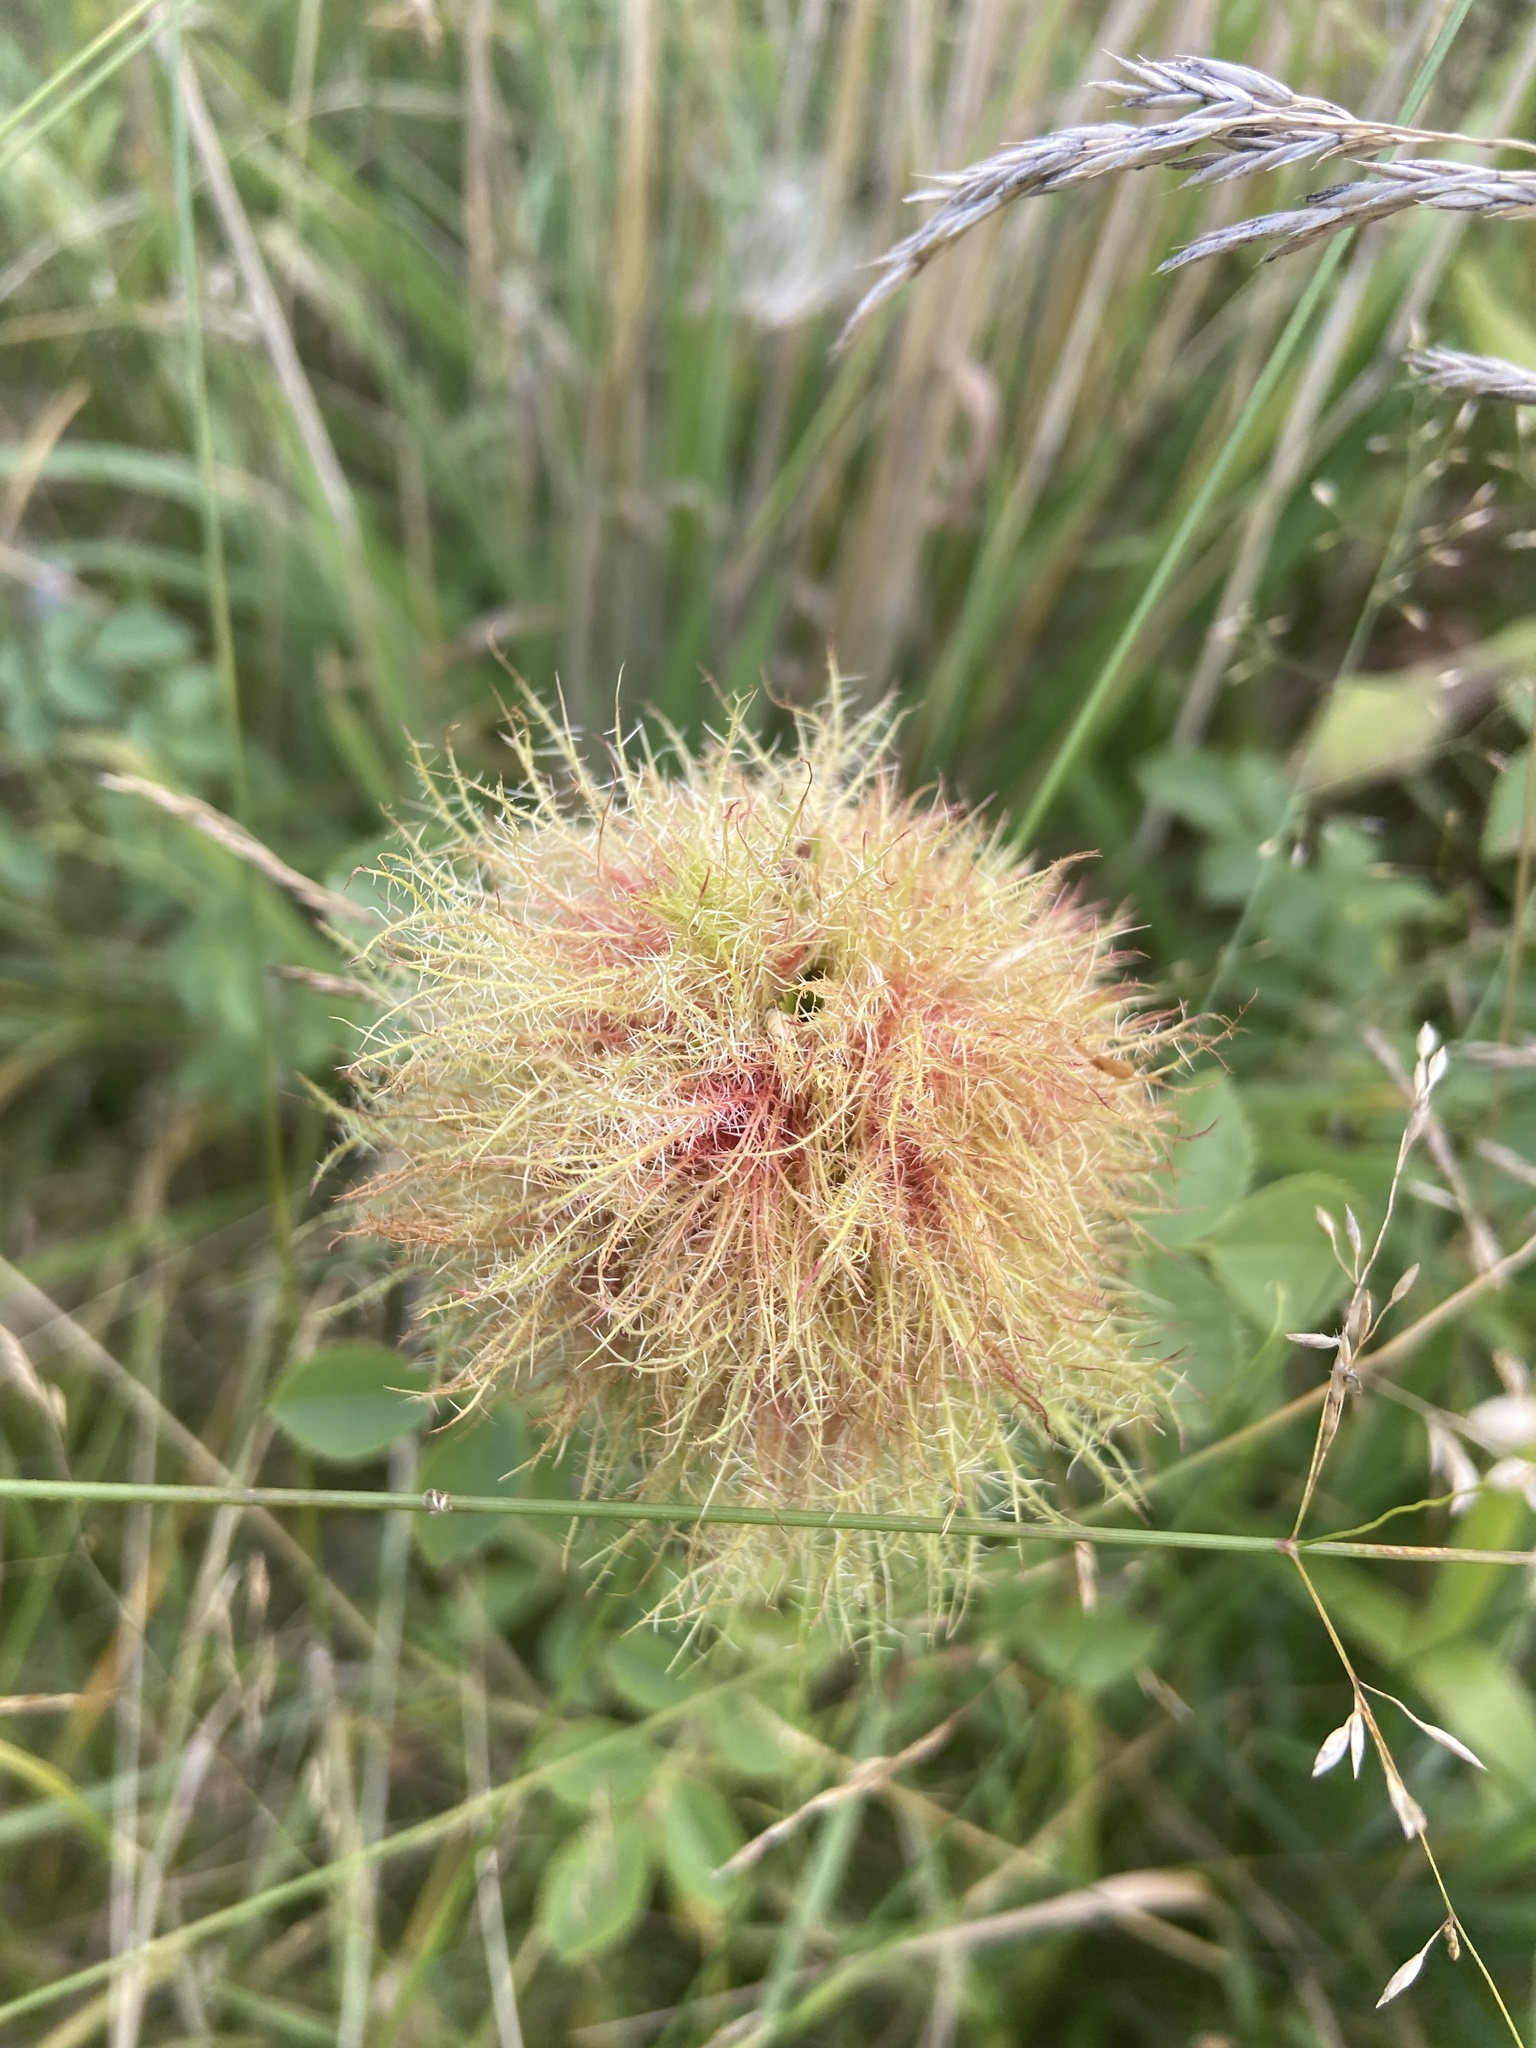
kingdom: Animalia
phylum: Arthropoda
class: Insecta
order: Hymenoptera
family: Cynipidae
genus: Diplolepis
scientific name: Diplolepis rosae
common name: Bedeguar gall
